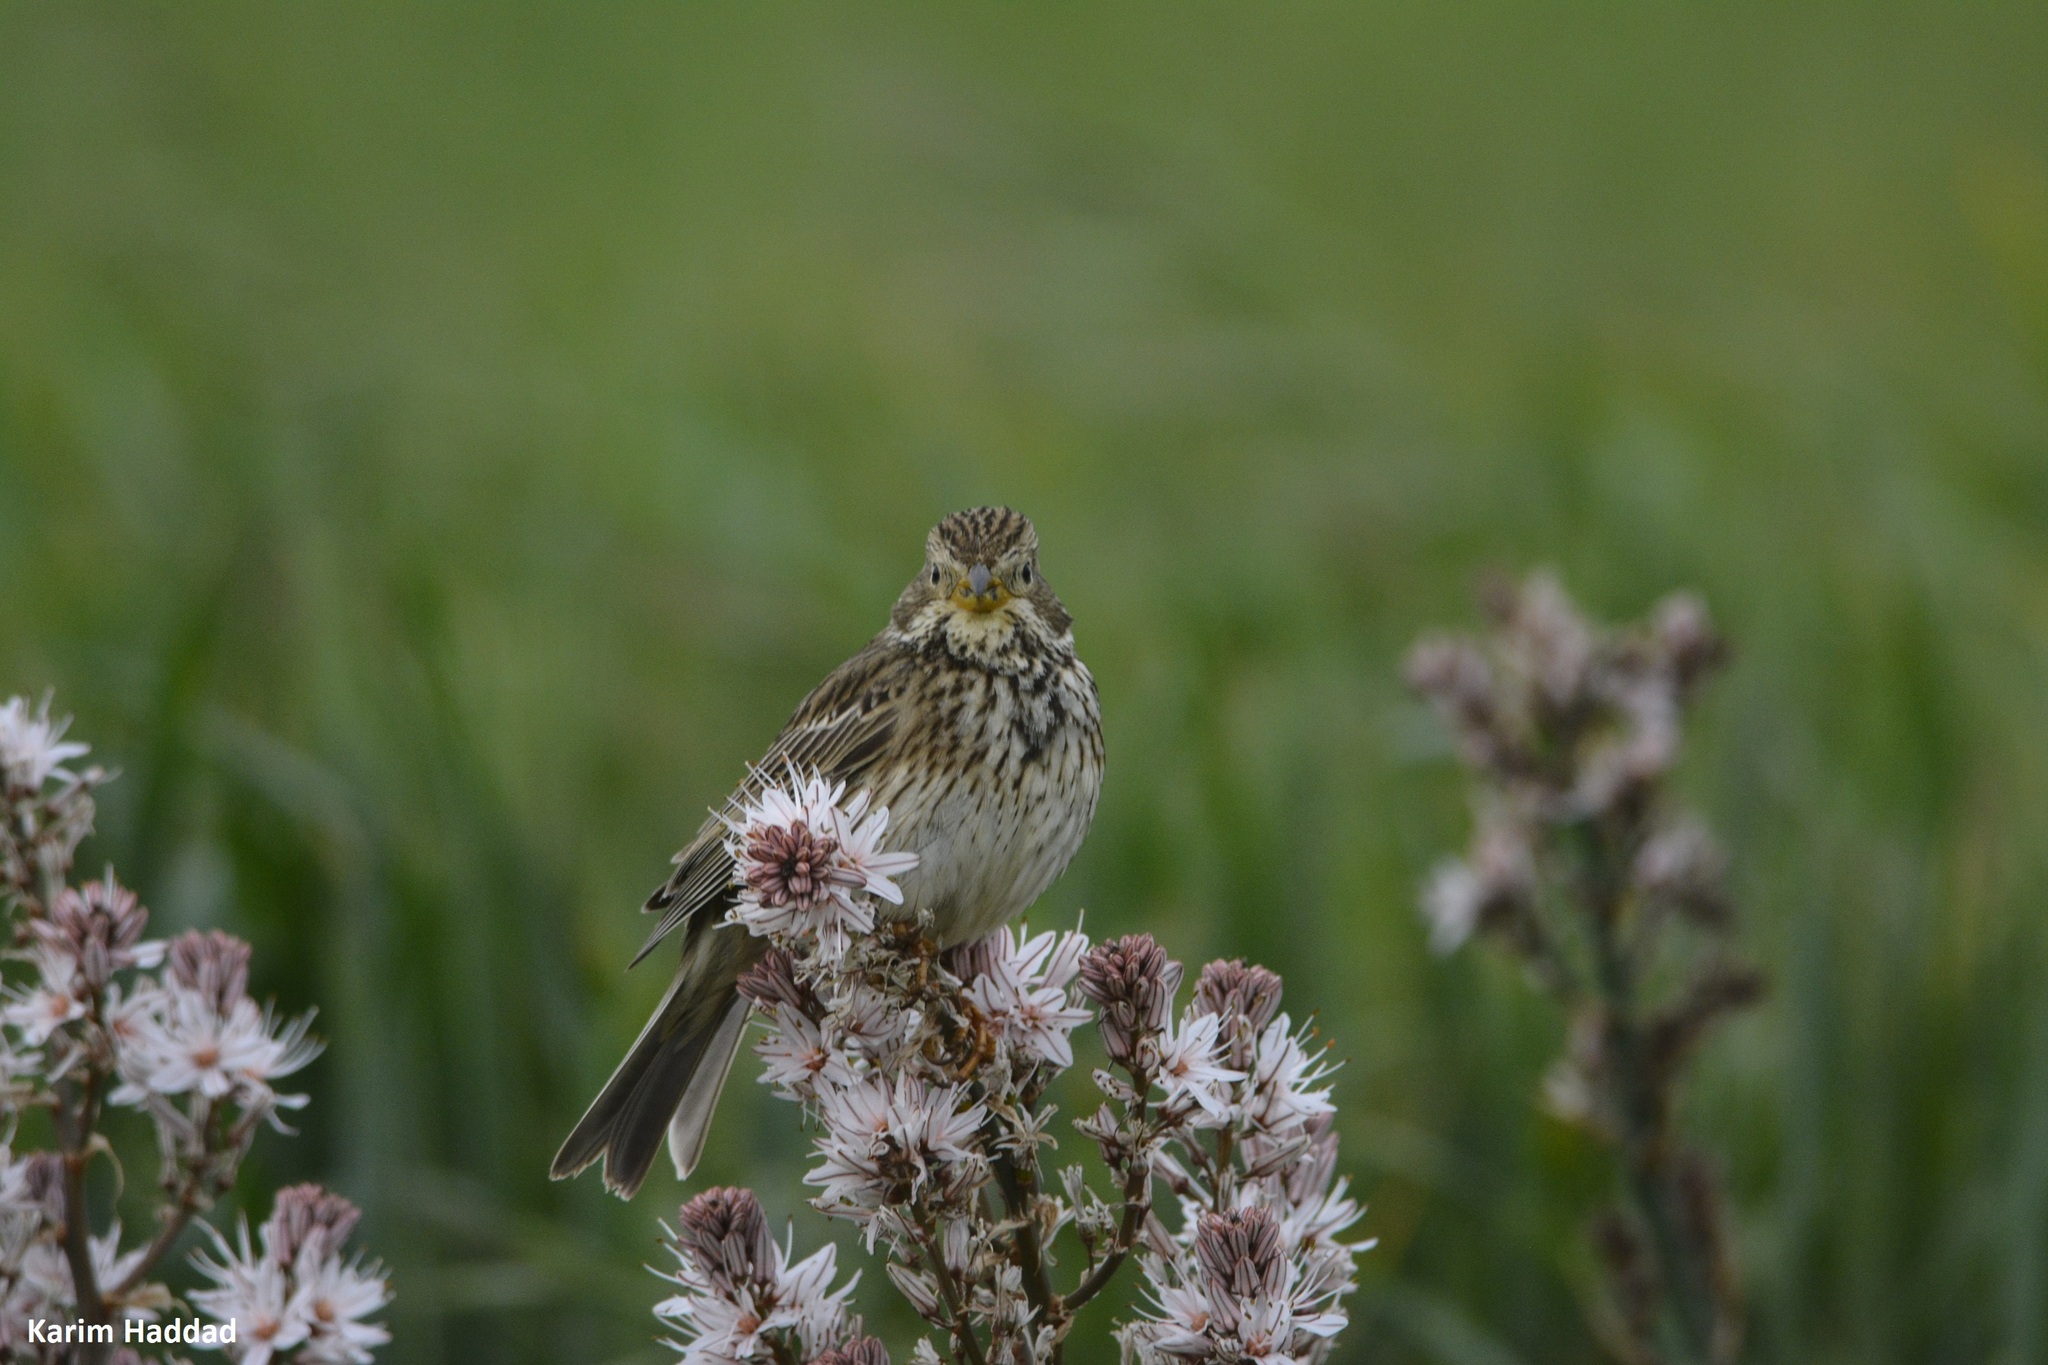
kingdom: Animalia
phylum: Chordata
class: Aves
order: Passeriformes
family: Emberizidae
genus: Emberiza
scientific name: Emberiza calandra
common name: Corn bunting
